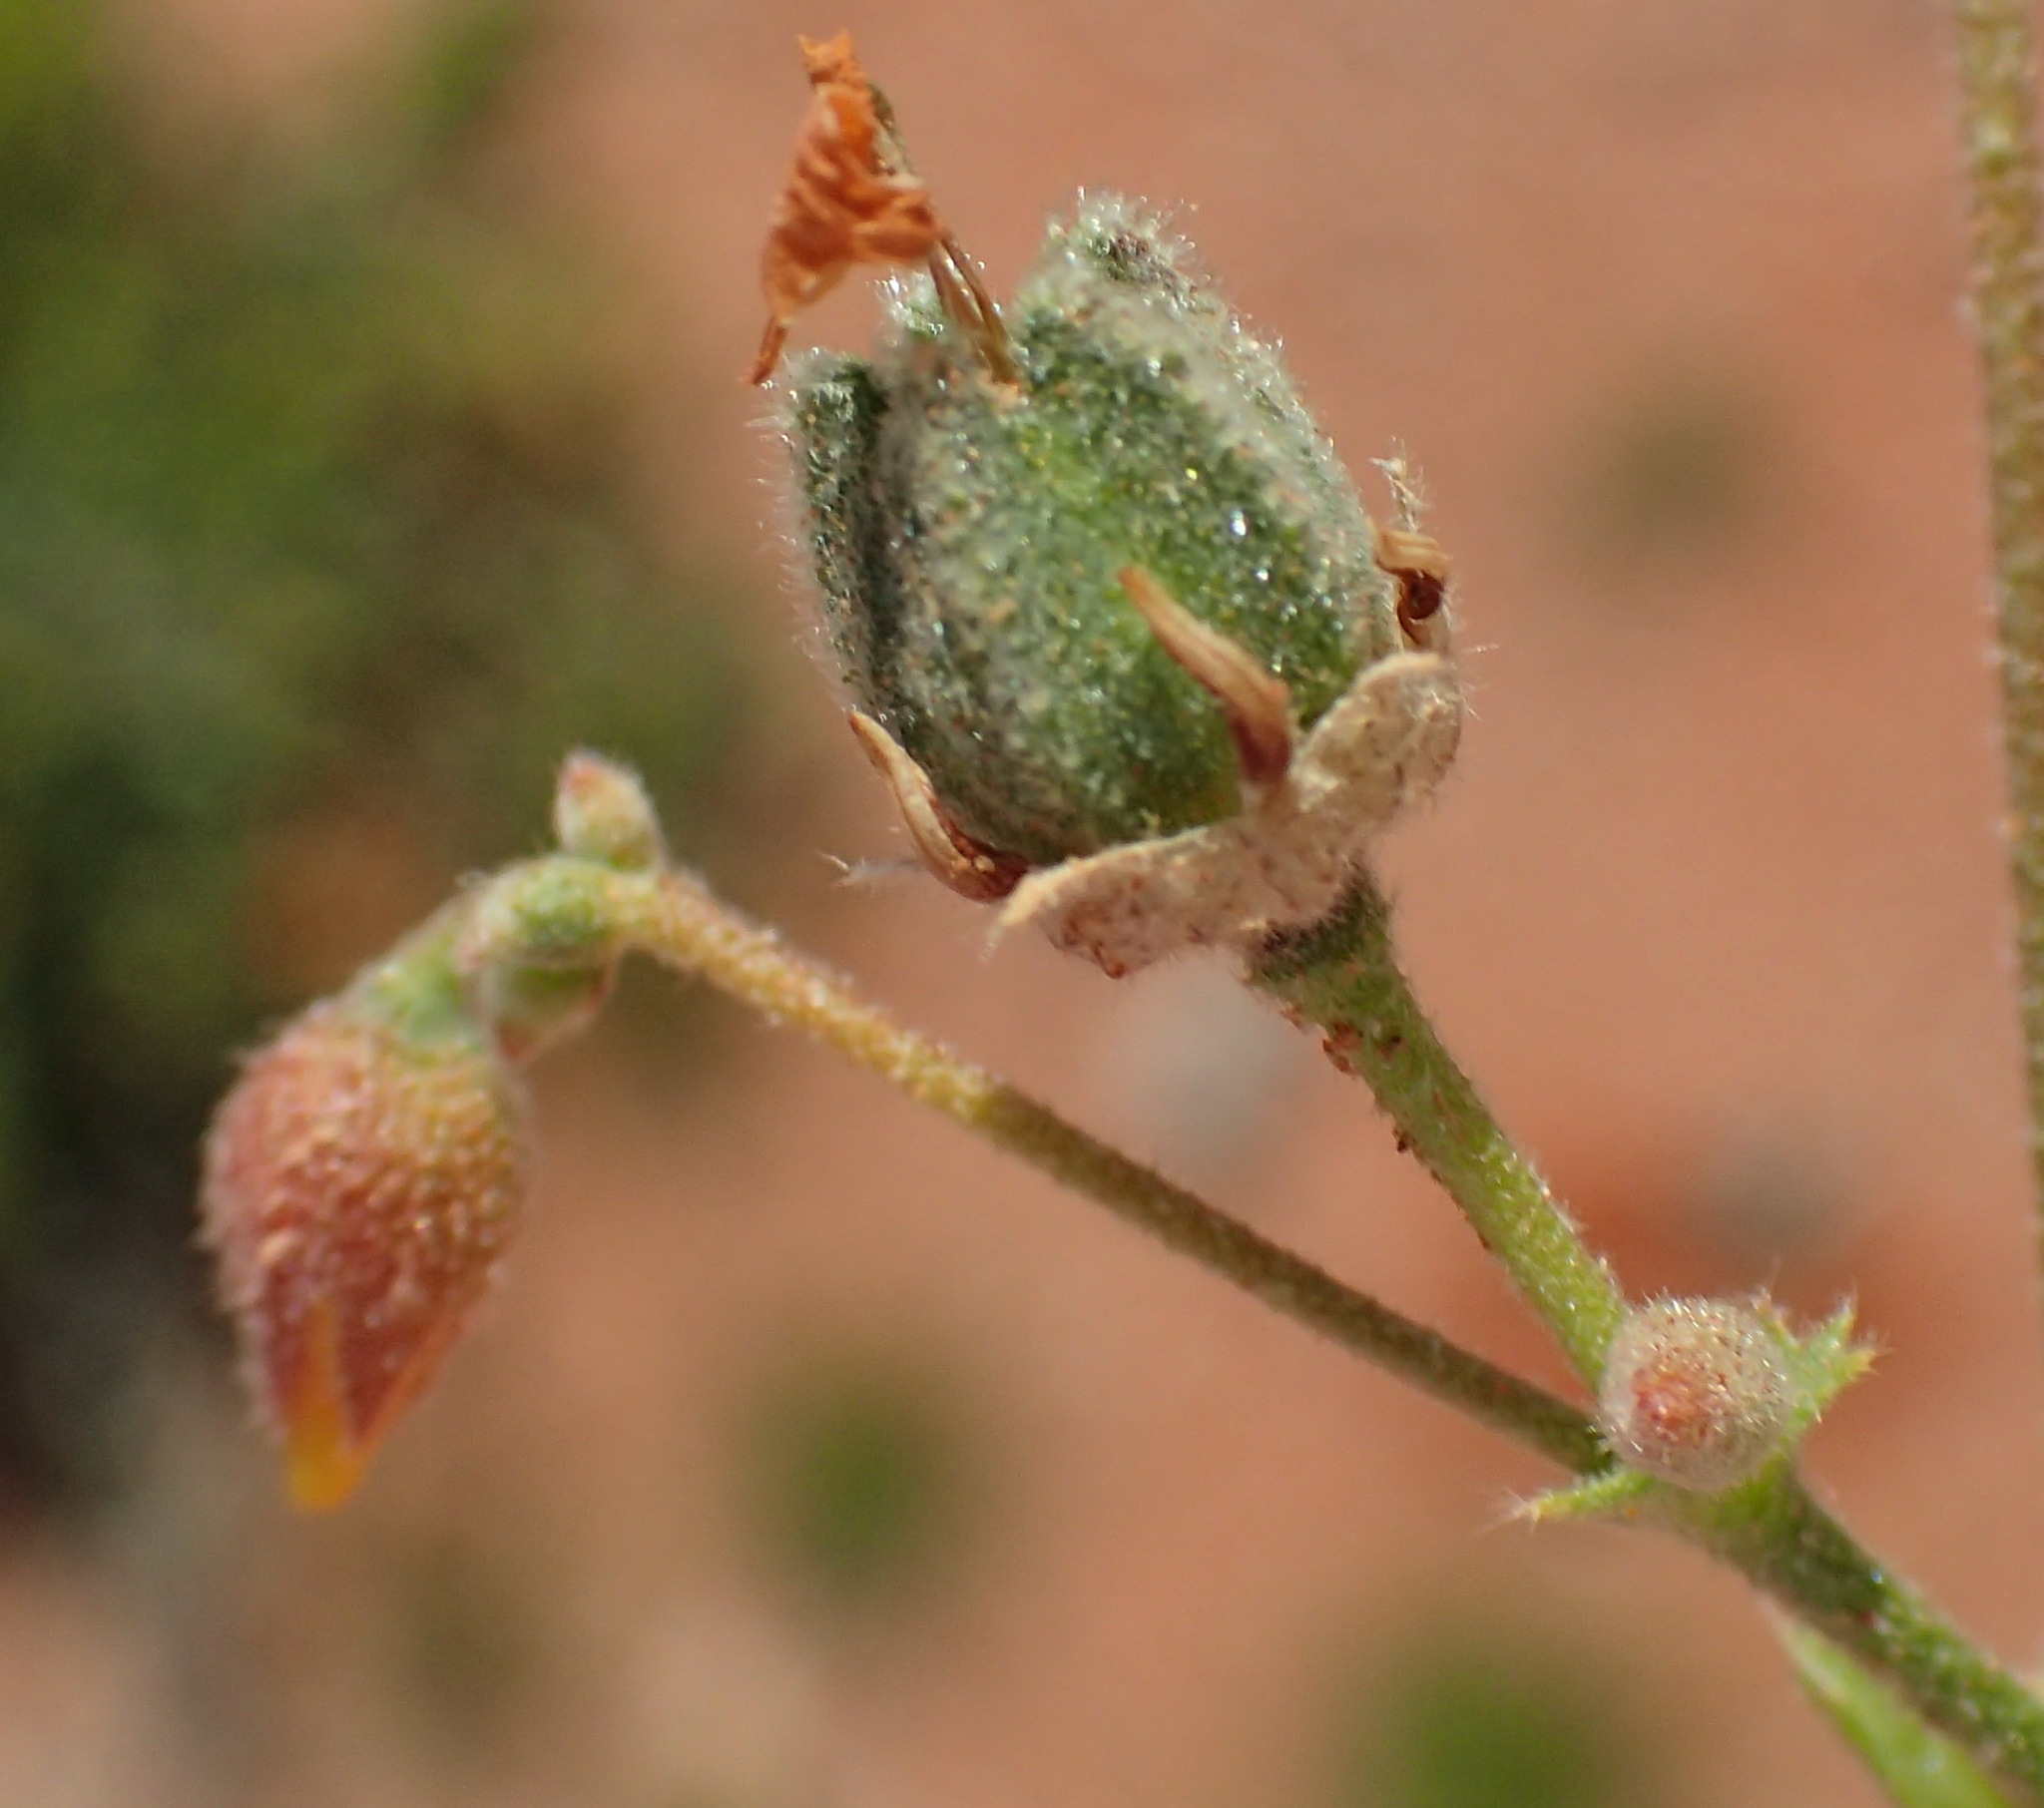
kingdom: Plantae
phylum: Tracheophyta
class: Magnoliopsida
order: Malvales
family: Malvaceae
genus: Hermannia
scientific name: Hermannia paucifolia
